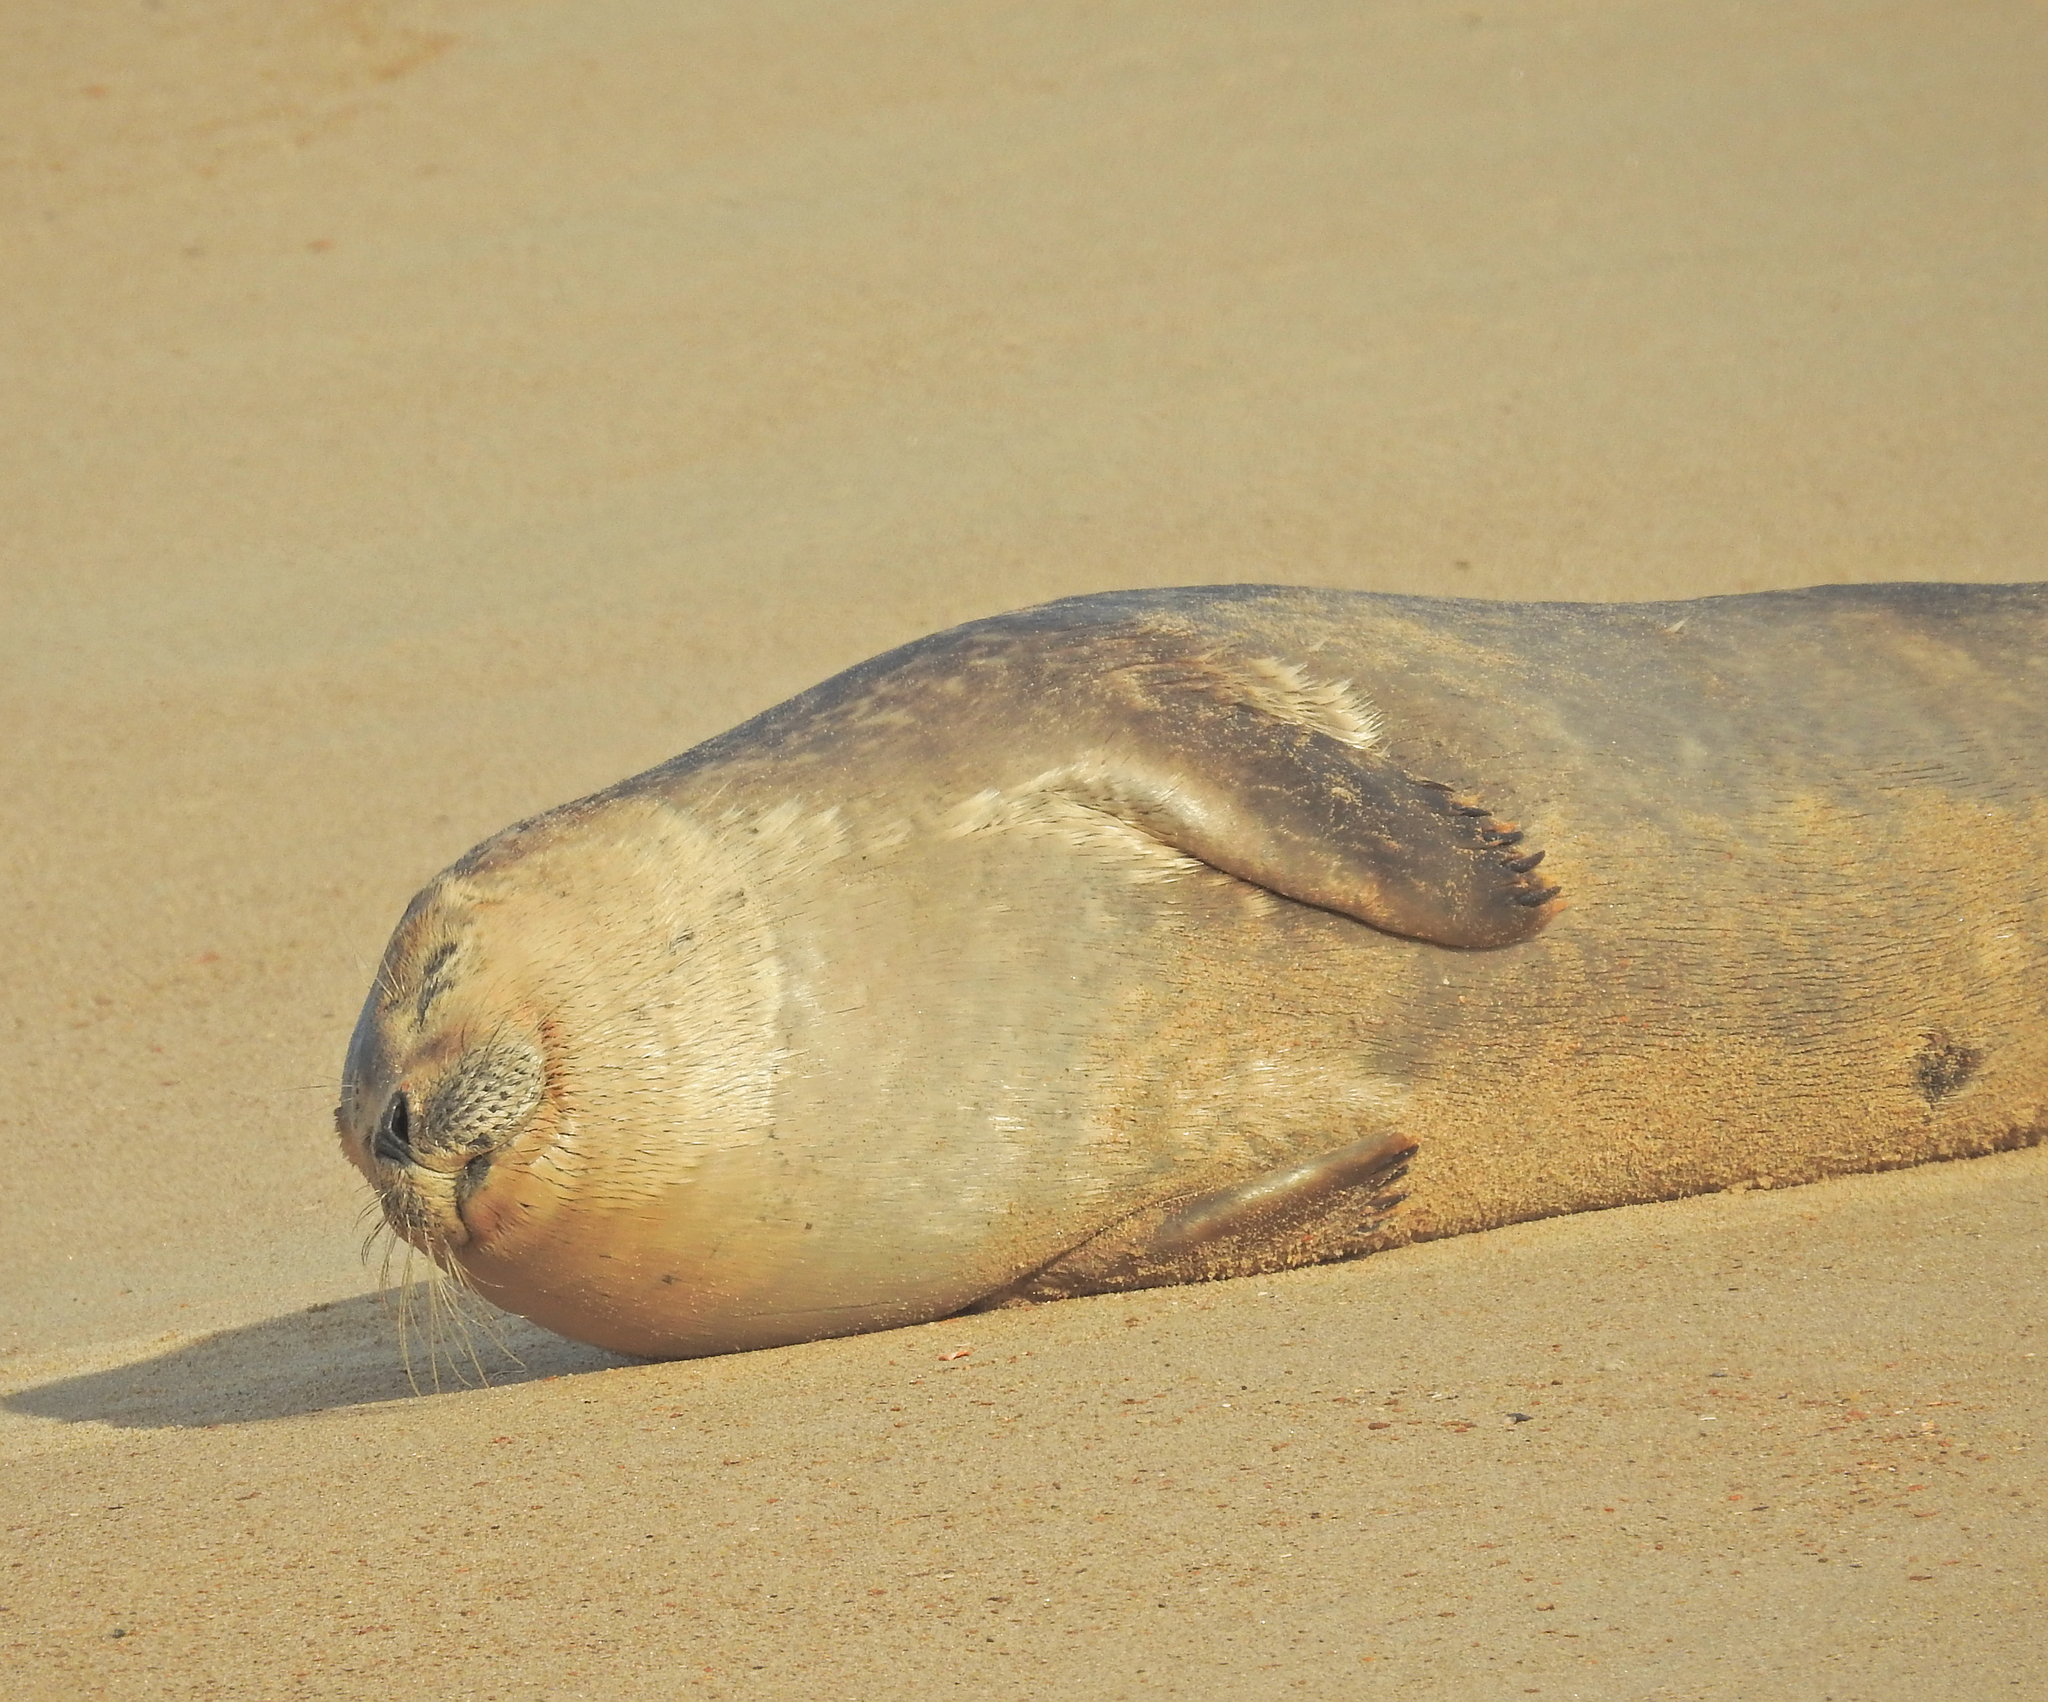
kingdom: Animalia
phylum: Chordata
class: Mammalia
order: Carnivora
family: Phocidae
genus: Phoca
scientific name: Phoca vitulina
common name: Harbor seal
